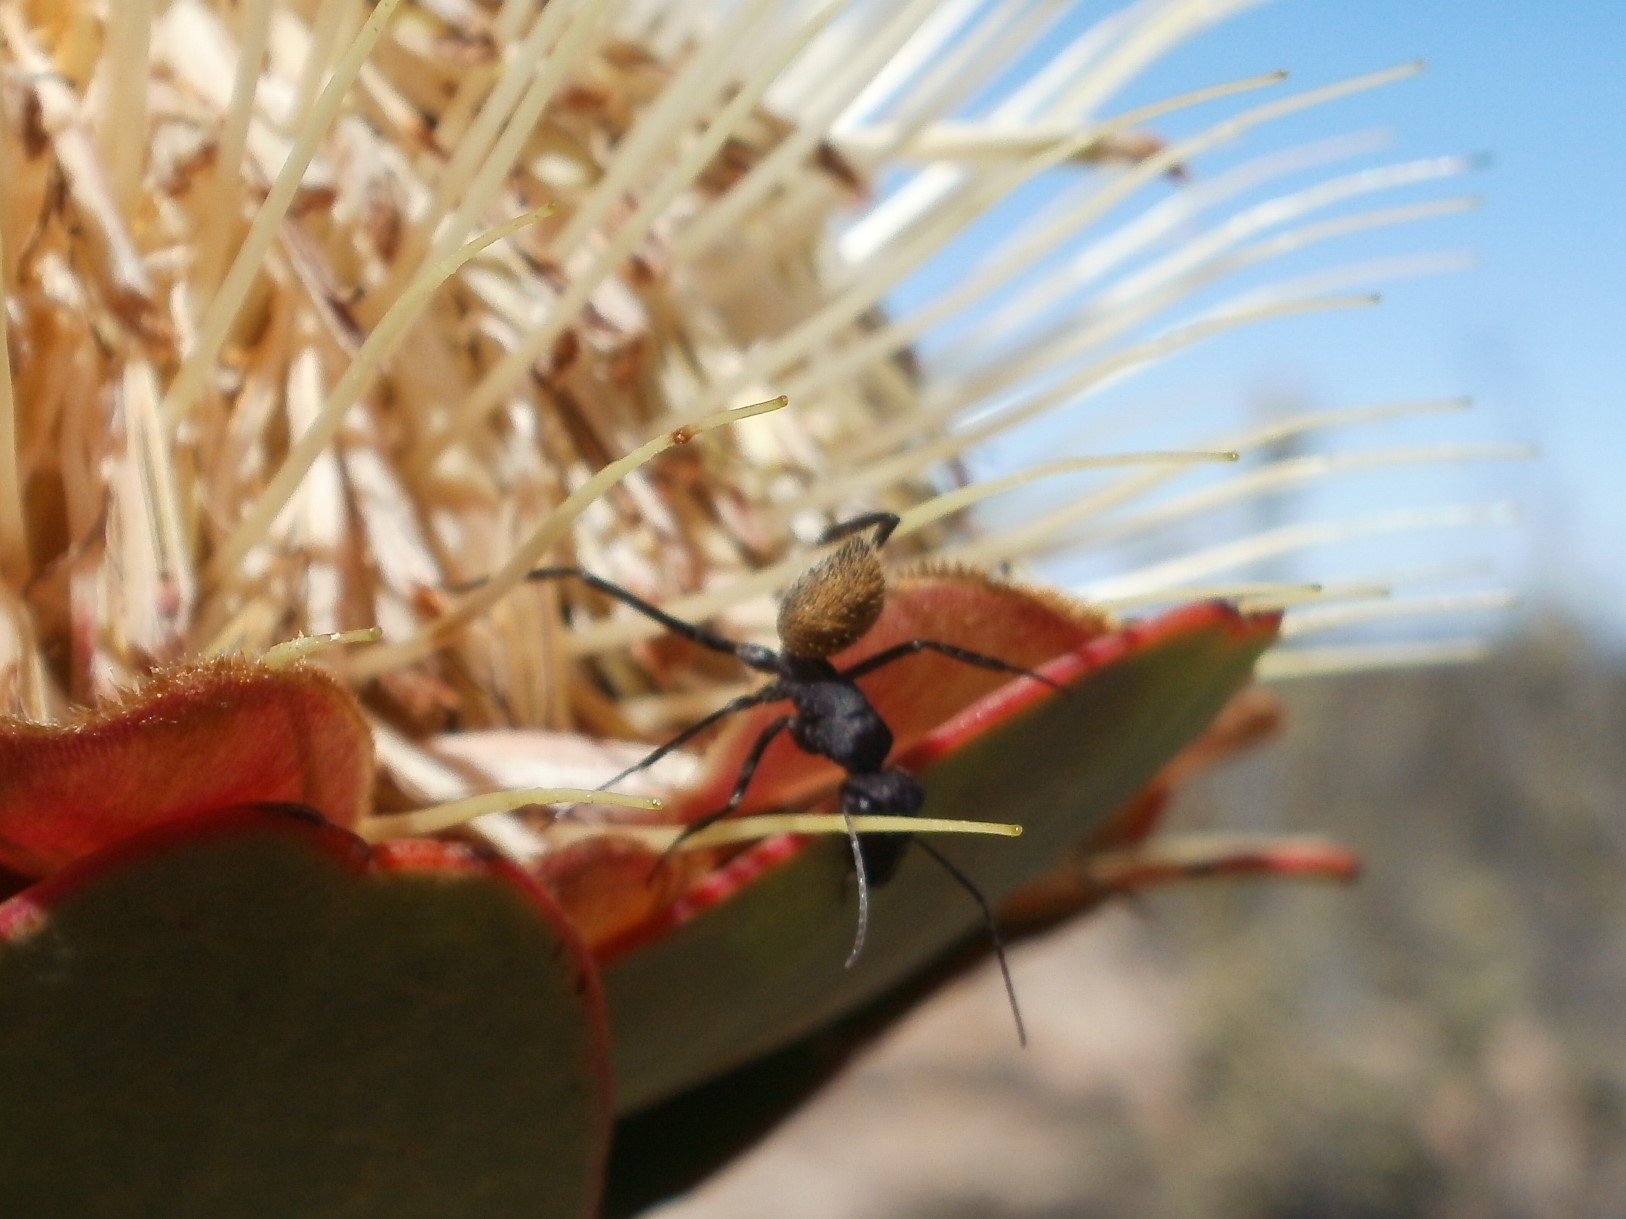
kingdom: Animalia
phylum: Arthropoda
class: Insecta
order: Hymenoptera
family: Formicidae
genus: Camponotus
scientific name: Camponotus fulvopilosus
